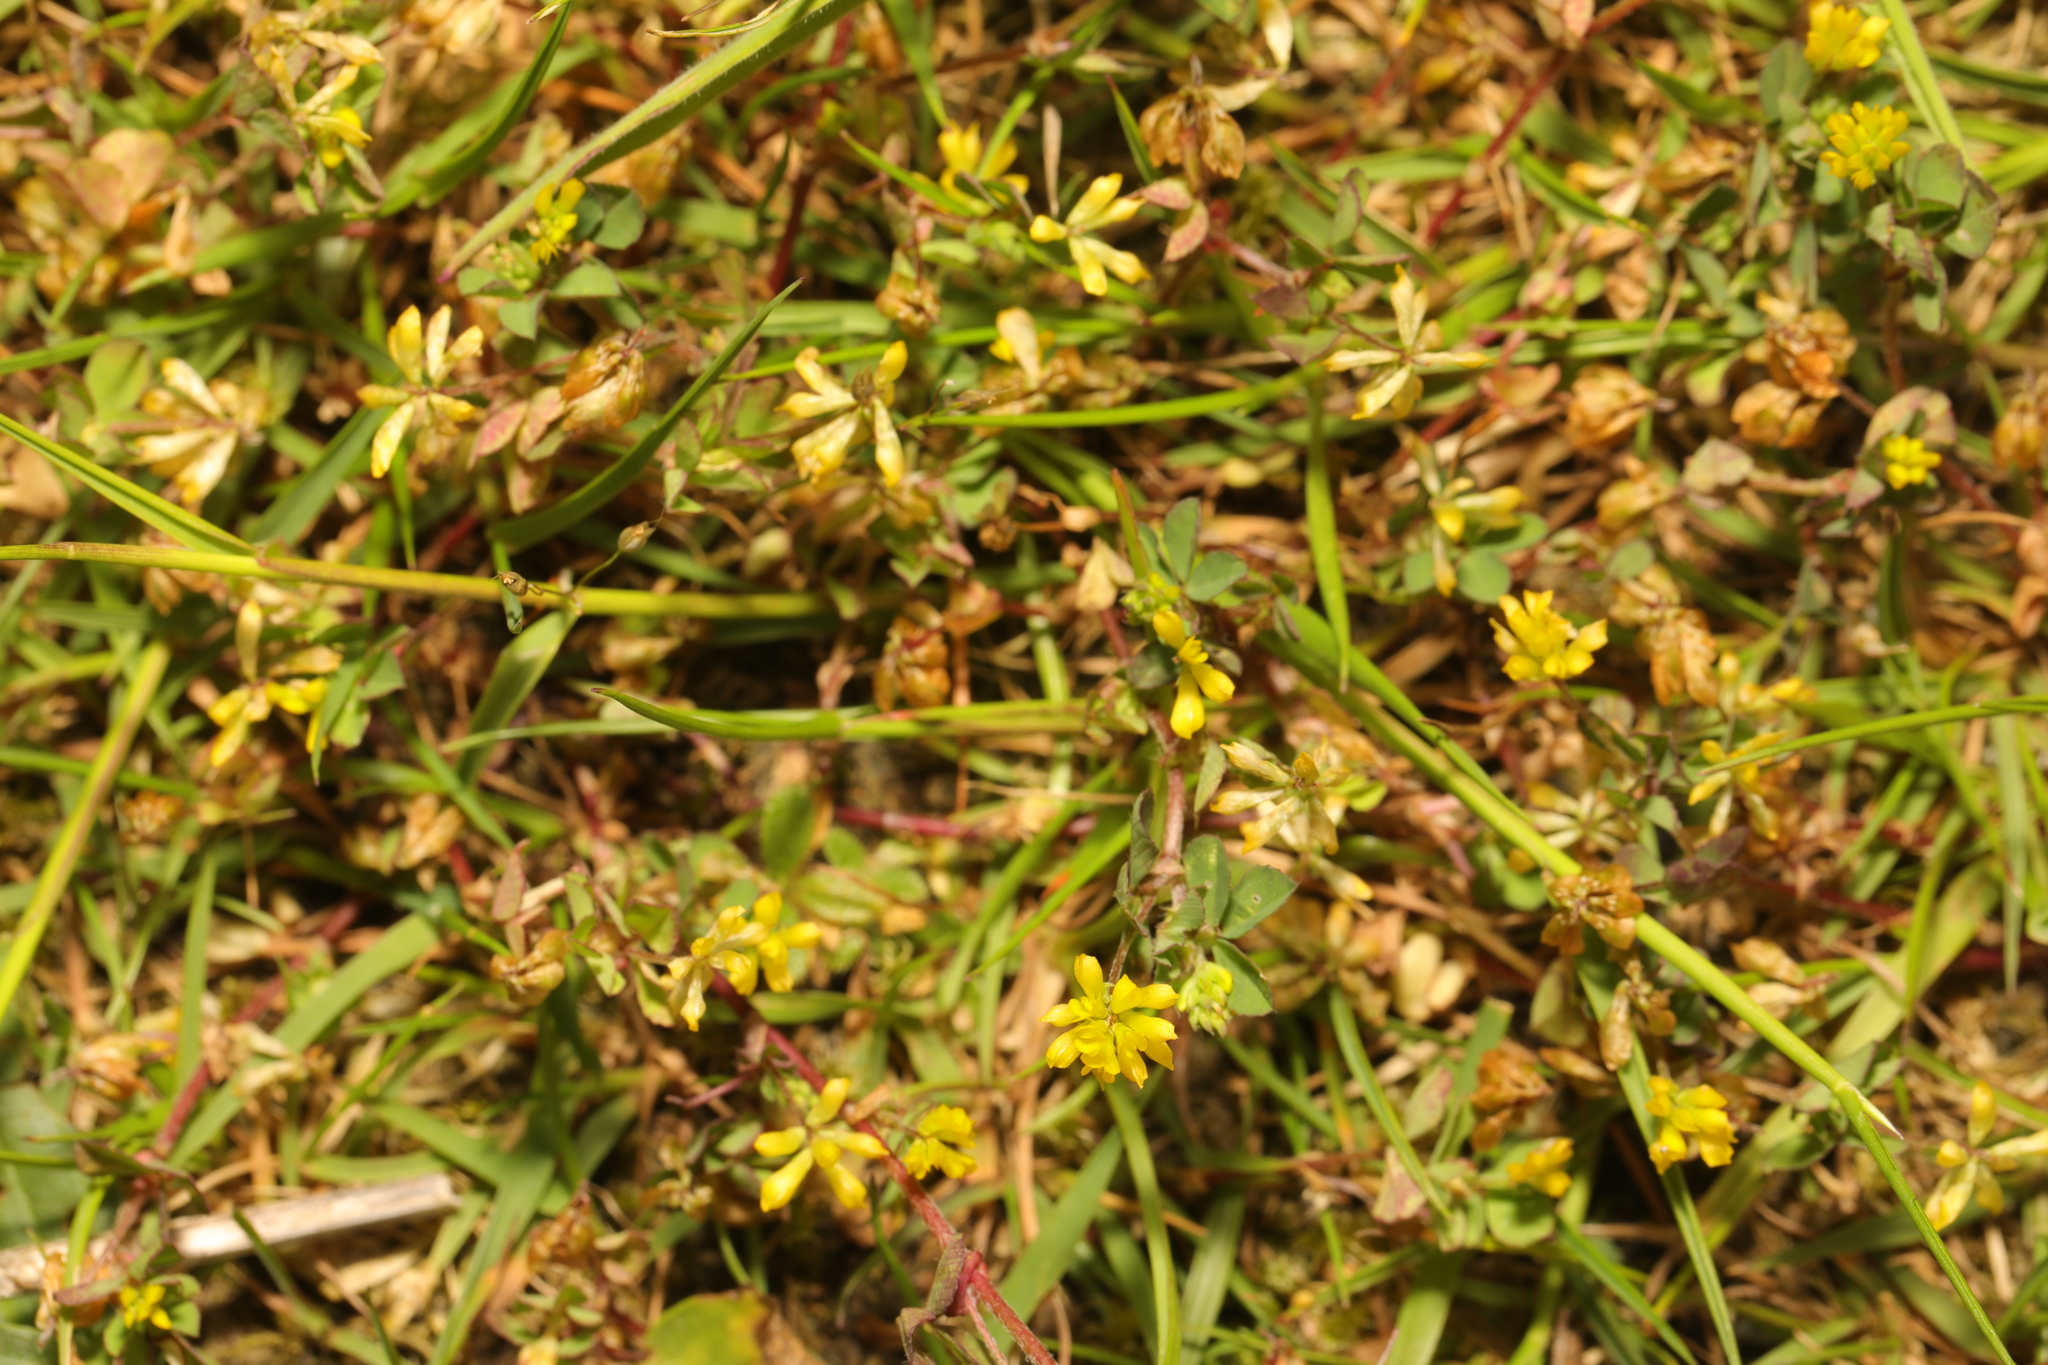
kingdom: Plantae
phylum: Tracheophyta
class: Magnoliopsida
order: Fabales
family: Fabaceae
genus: Trifolium
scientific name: Trifolium dubium
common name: Suckling clover
